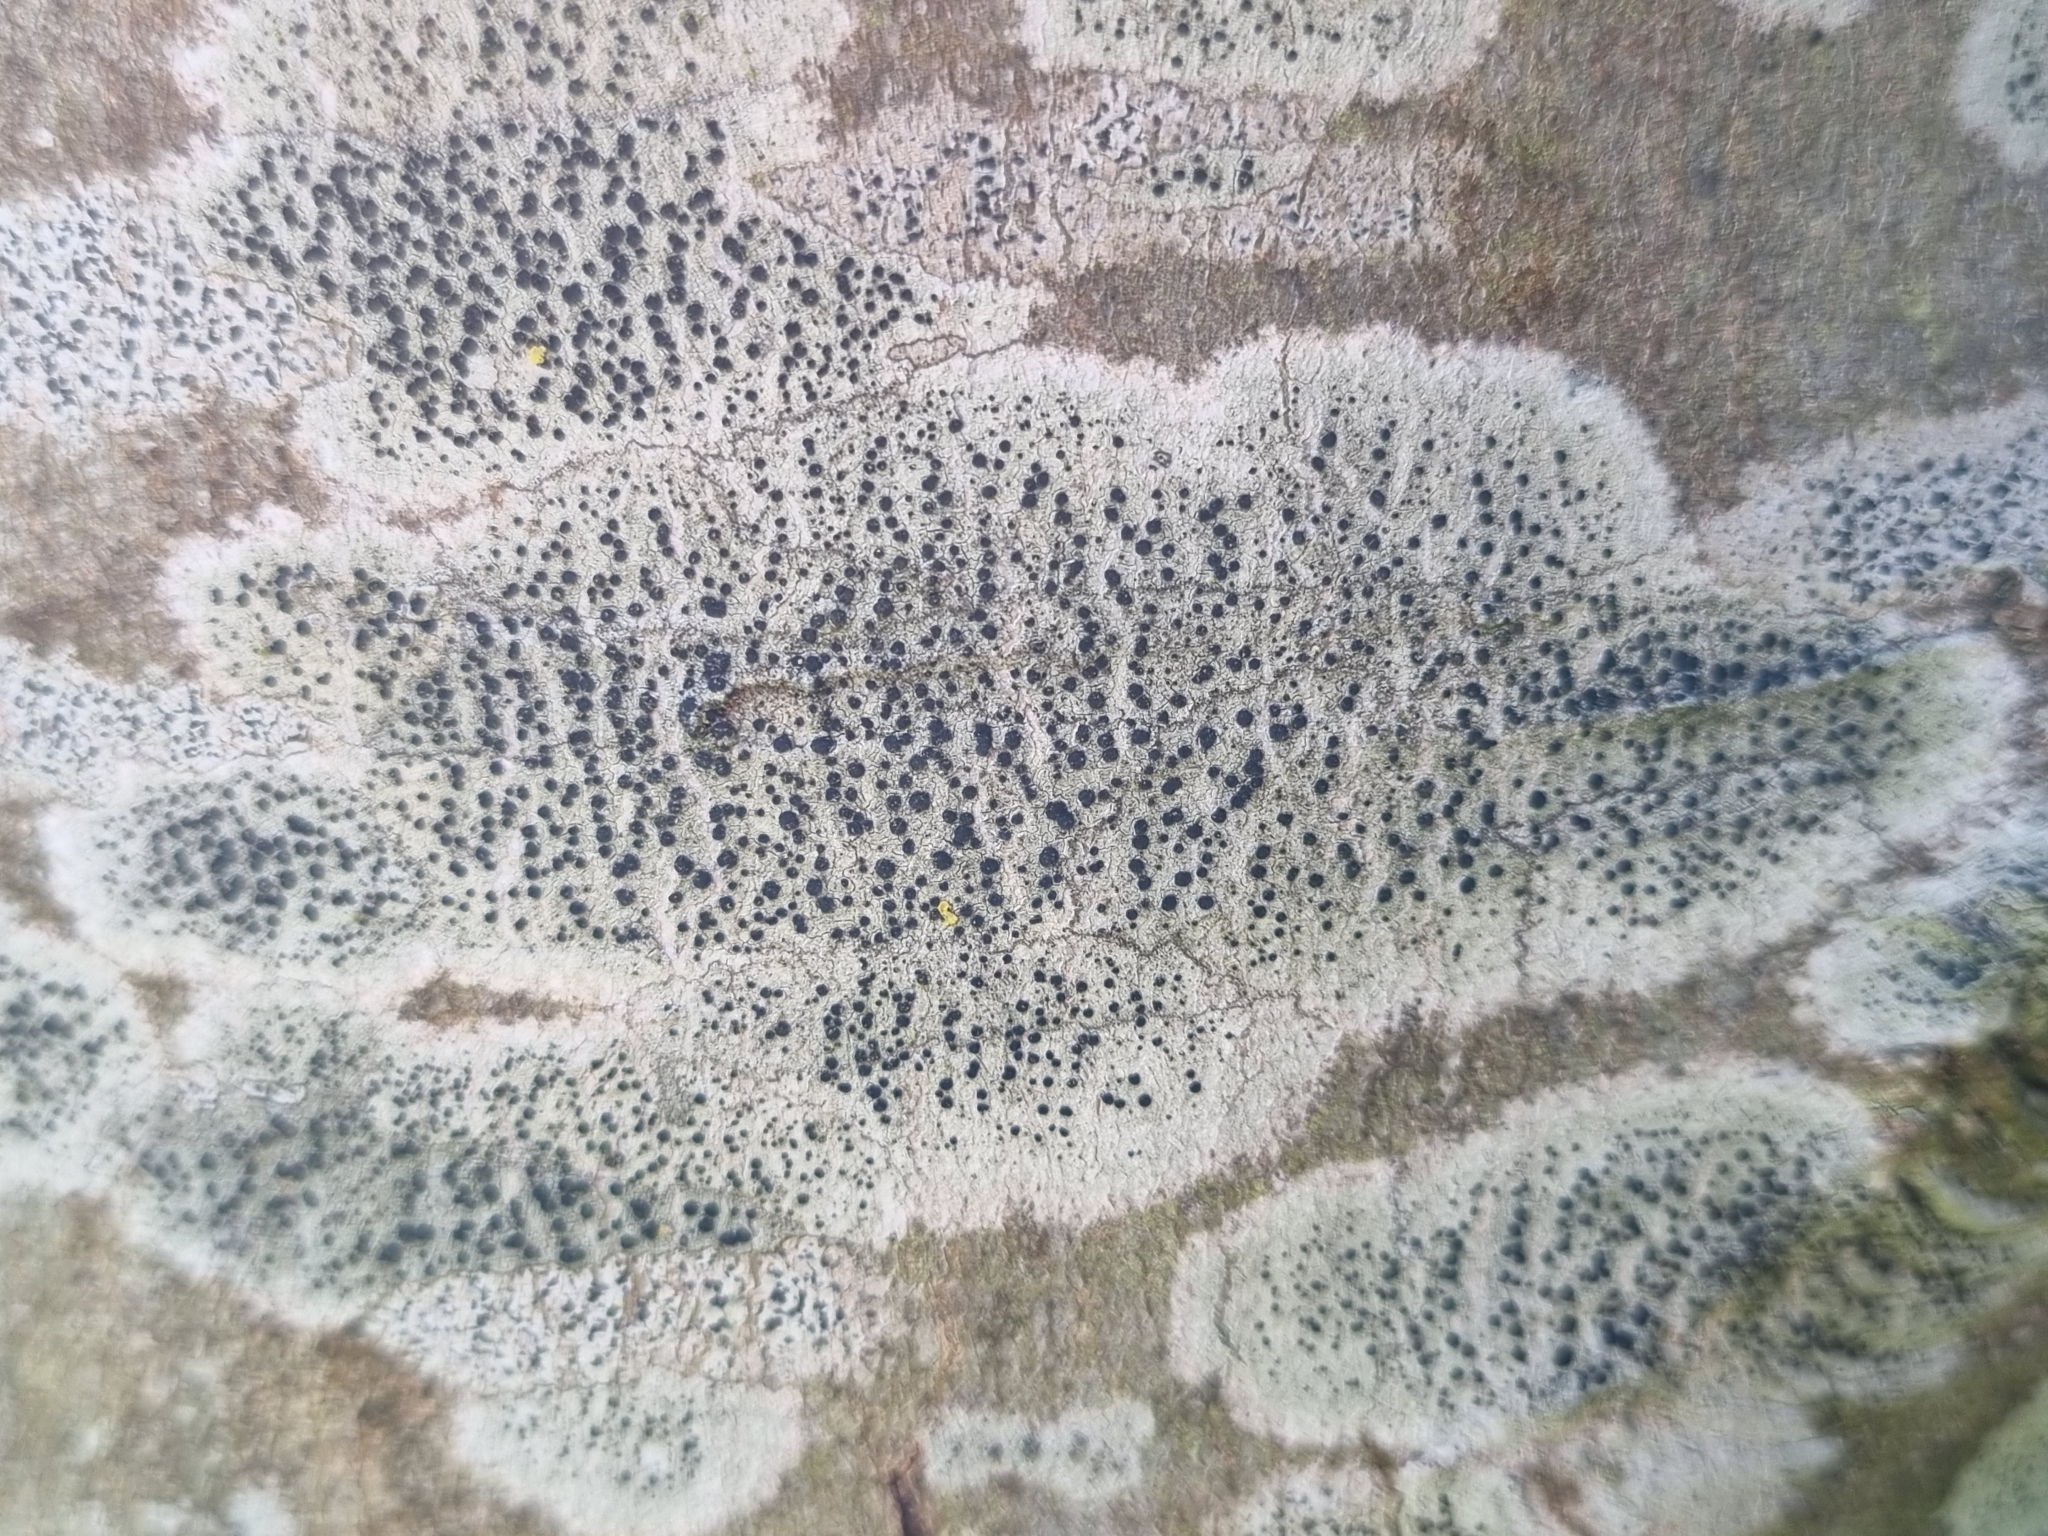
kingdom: Fungi
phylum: Ascomycota
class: Lecanoromycetes
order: Lecanorales
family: Lecanoraceae
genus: Lecidella
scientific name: Lecidella elaeochroma
